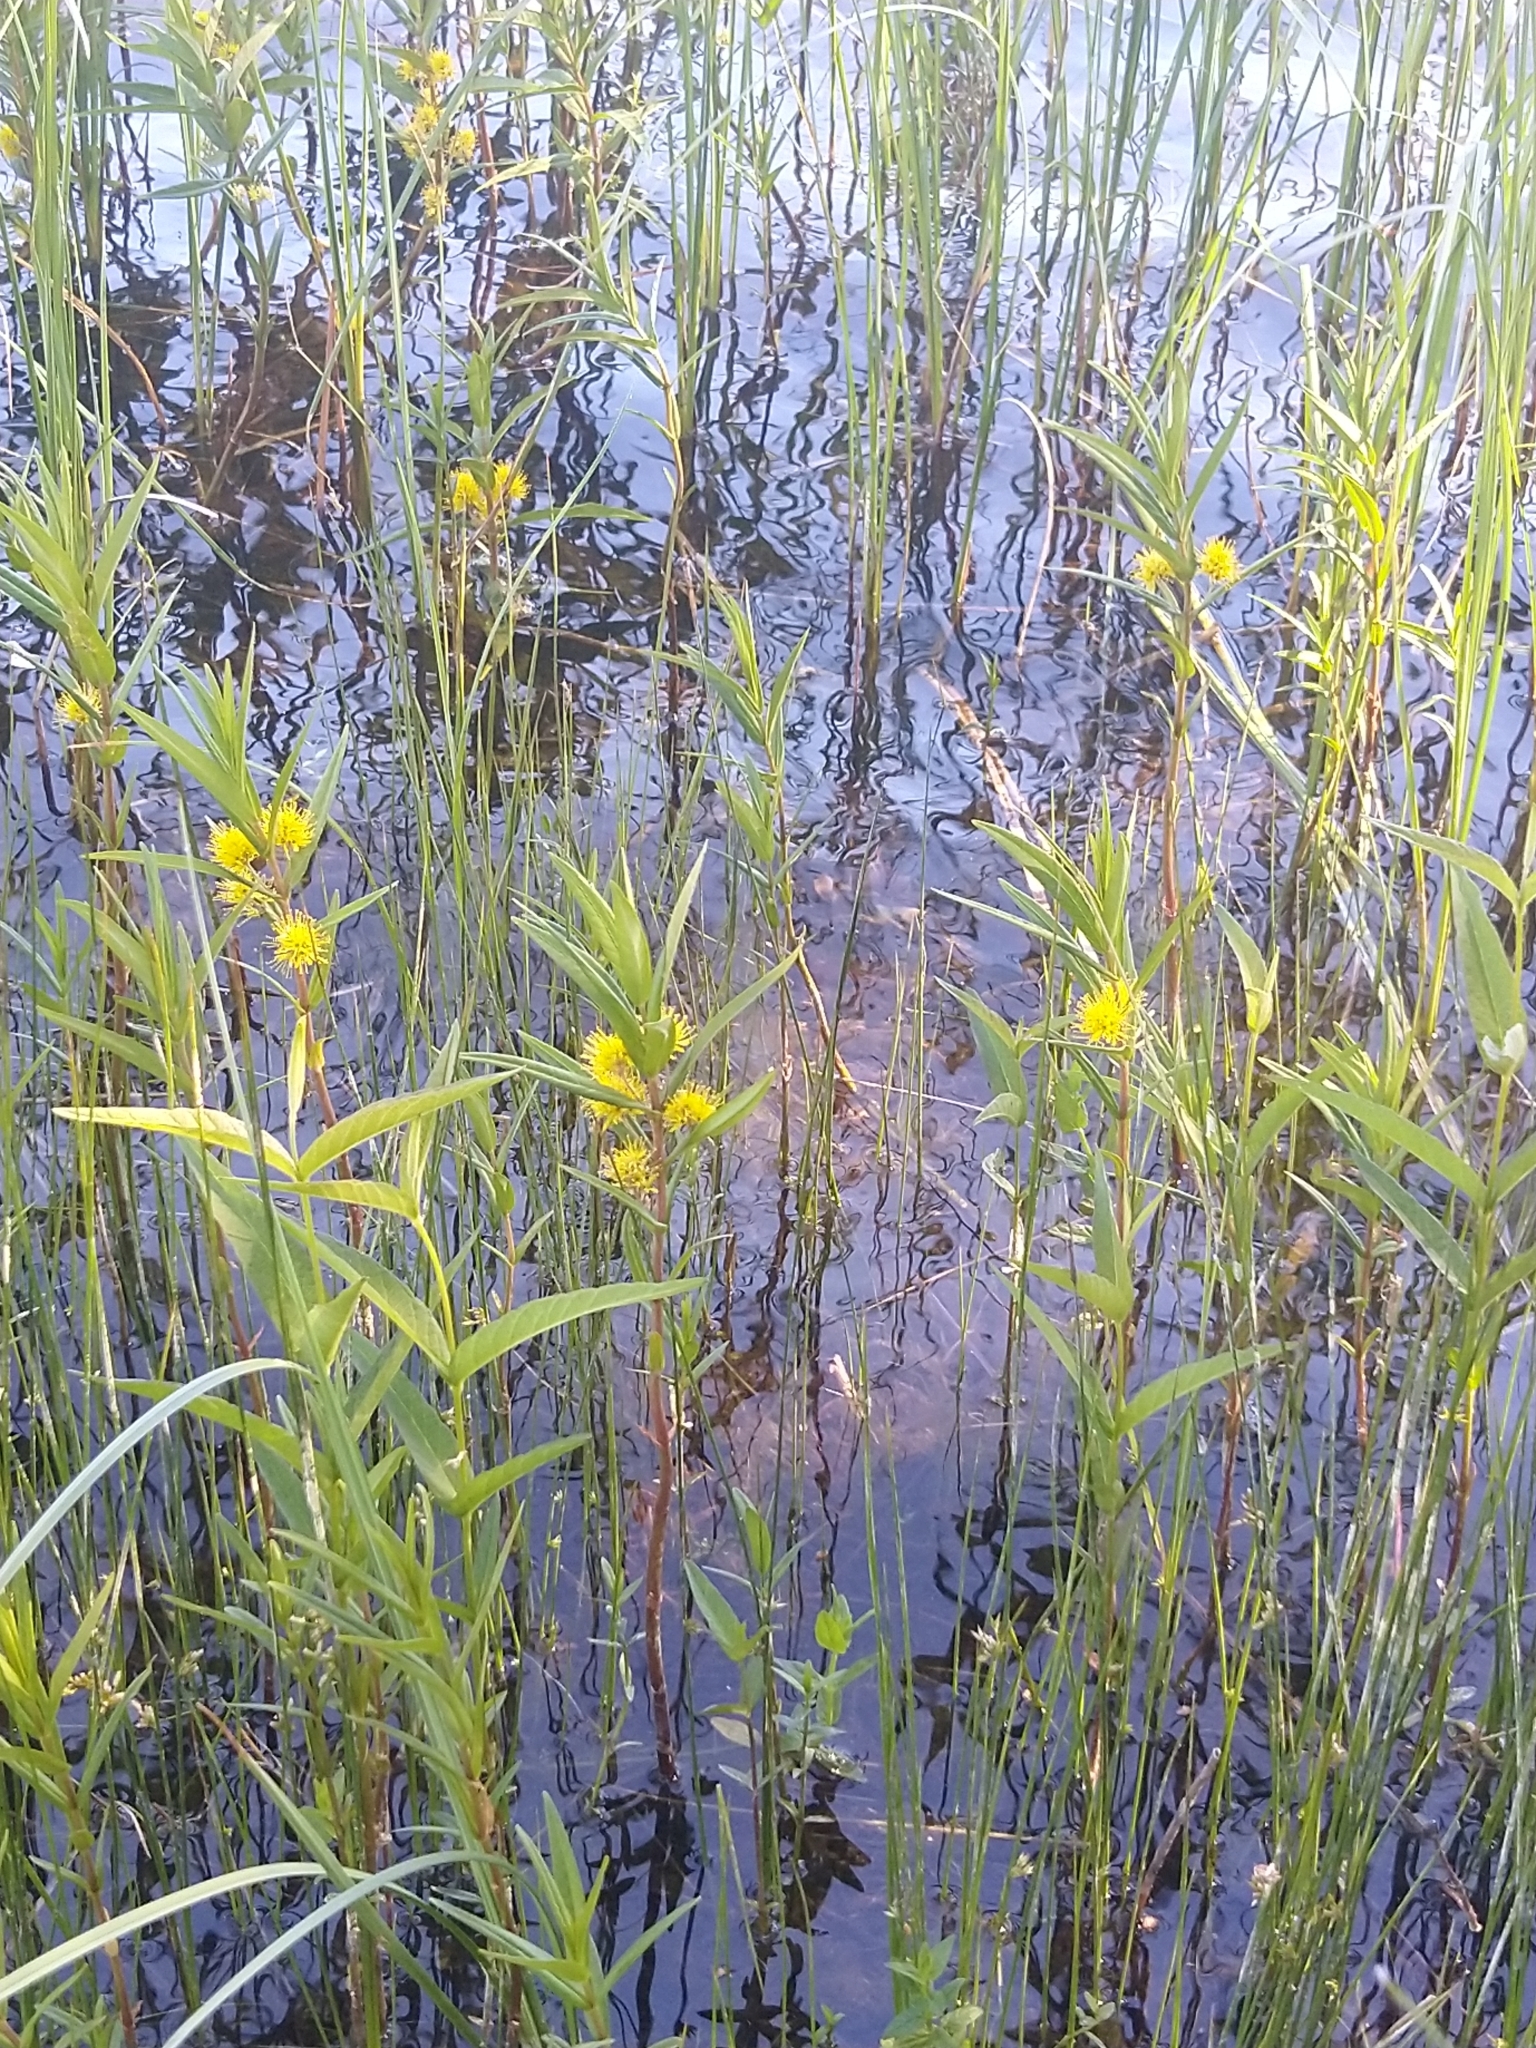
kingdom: Plantae
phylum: Tracheophyta
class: Magnoliopsida
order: Ericales
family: Primulaceae
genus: Lysimachia
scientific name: Lysimachia thyrsiflora
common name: Tufted loosestrife
